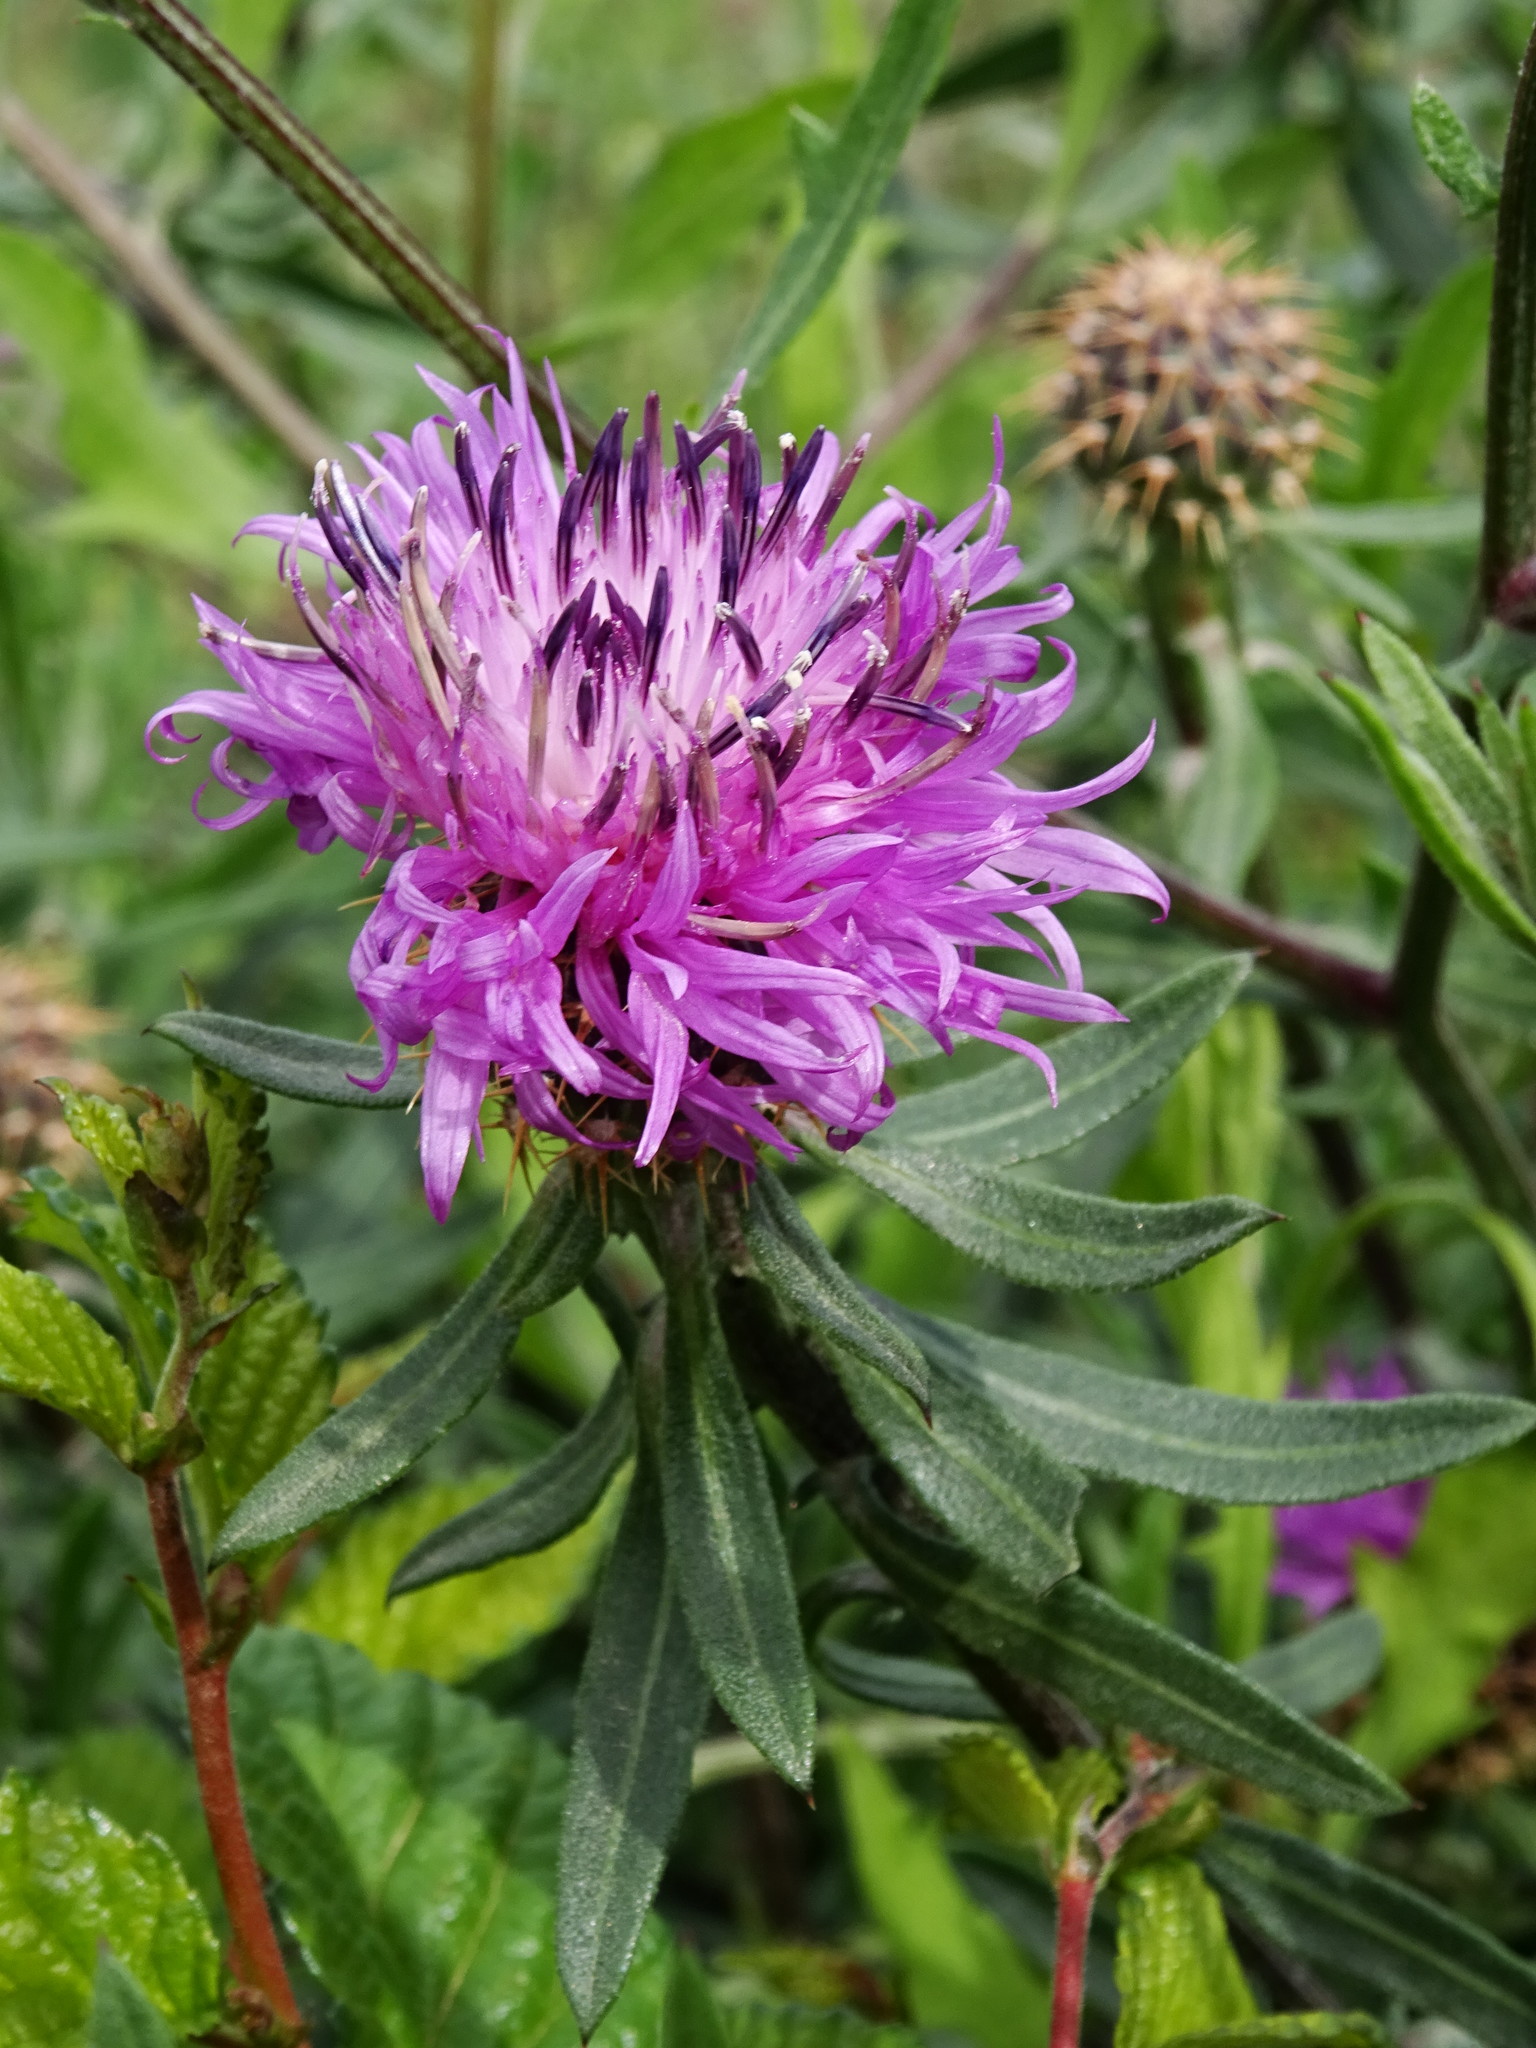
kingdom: Plantae
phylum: Tracheophyta
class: Magnoliopsida
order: Asterales
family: Asteraceae
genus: Centaurea
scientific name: Centaurea aspera
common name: Rough star-thistle
